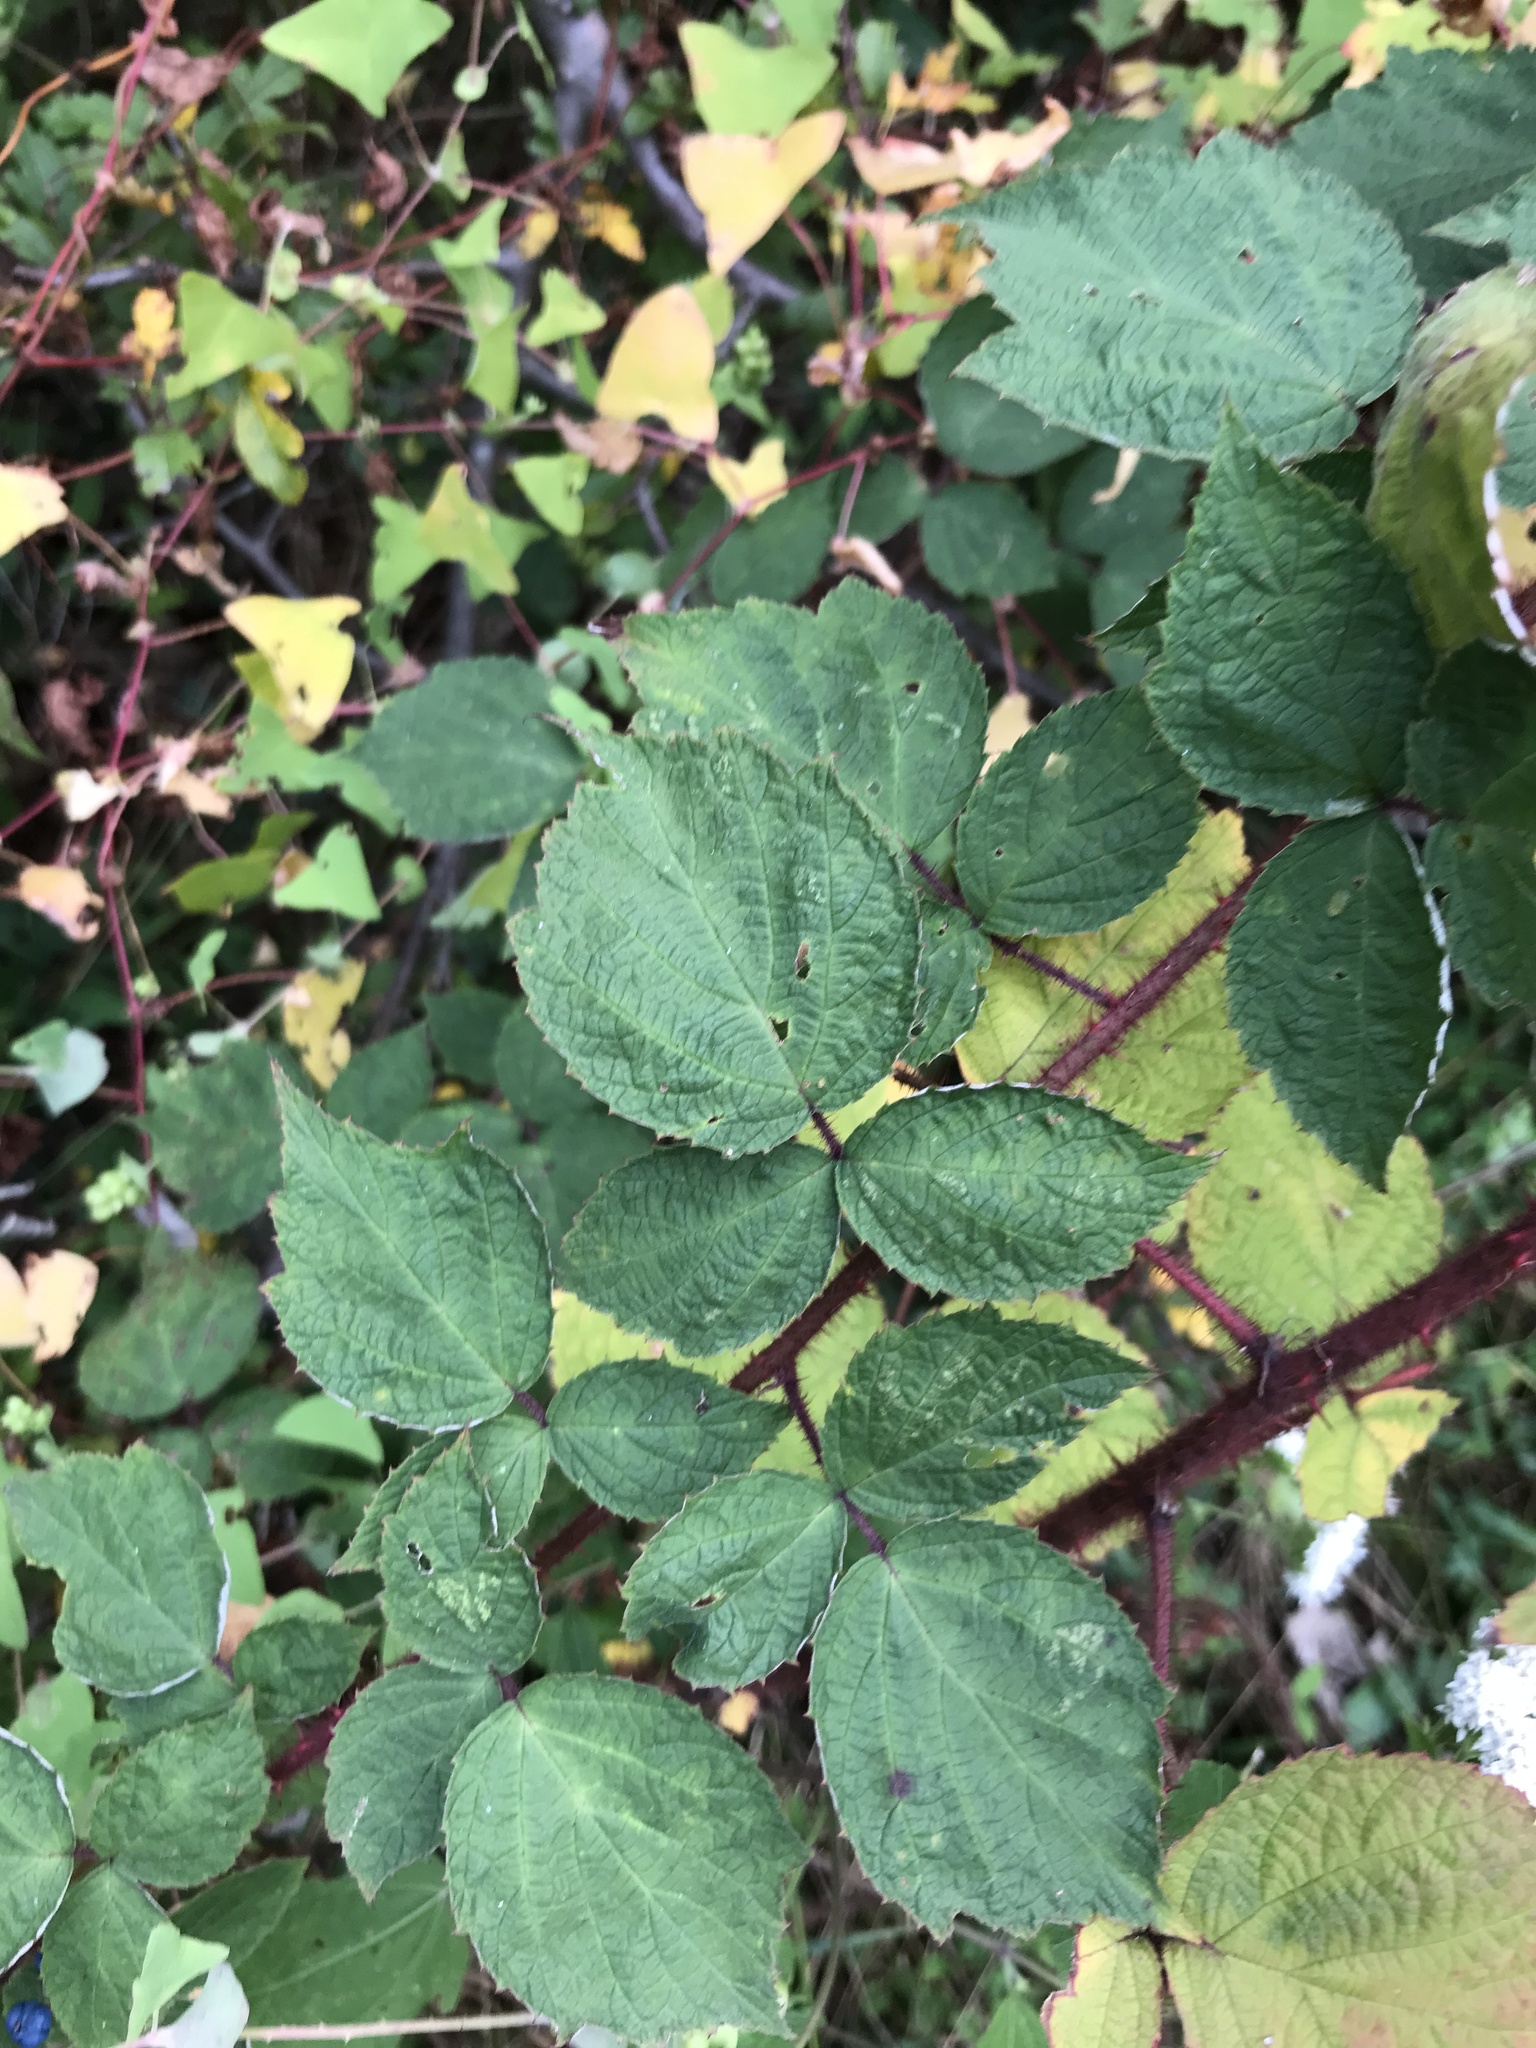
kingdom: Plantae
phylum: Tracheophyta
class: Magnoliopsida
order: Rosales
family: Rosaceae
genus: Rubus
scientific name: Rubus phoenicolasius
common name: Japanese wineberry
